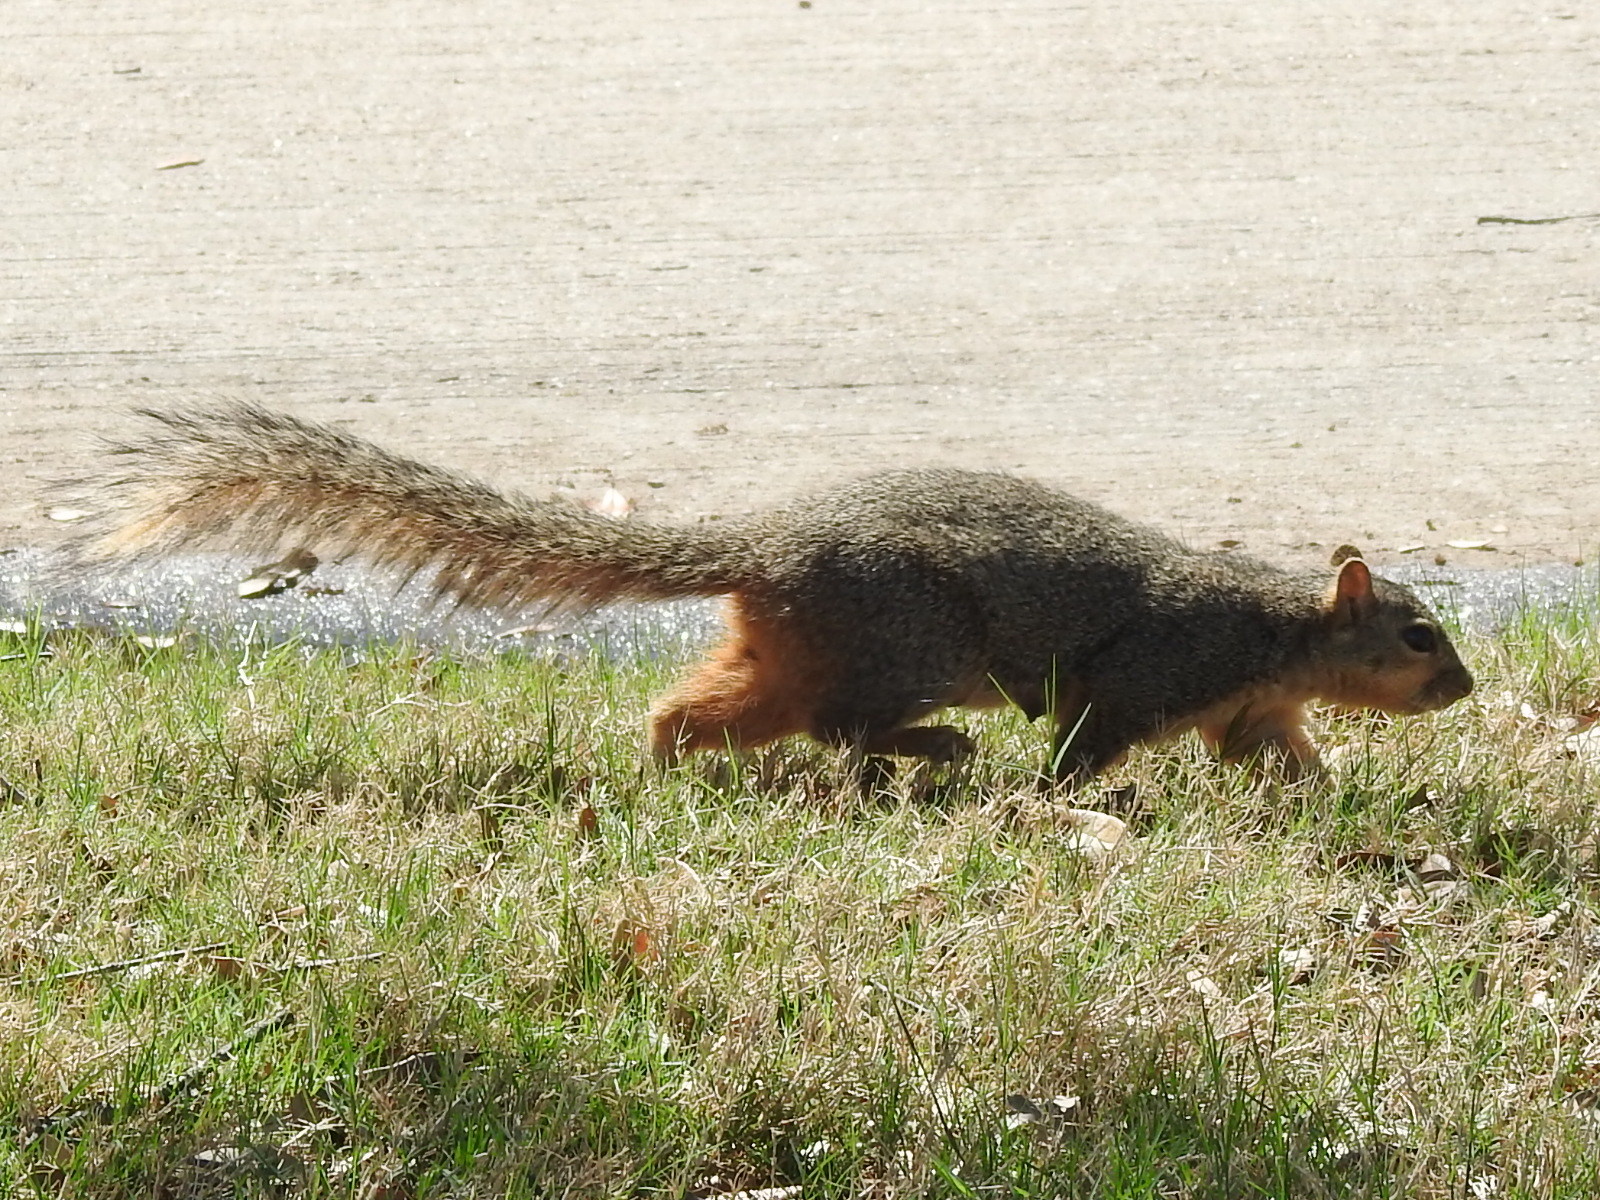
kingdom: Animalia
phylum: Chordata
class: Mammalia
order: Rodentia
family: Sciuridae
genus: Sciurus
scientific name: Sciurus niger
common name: Fox squirrel
